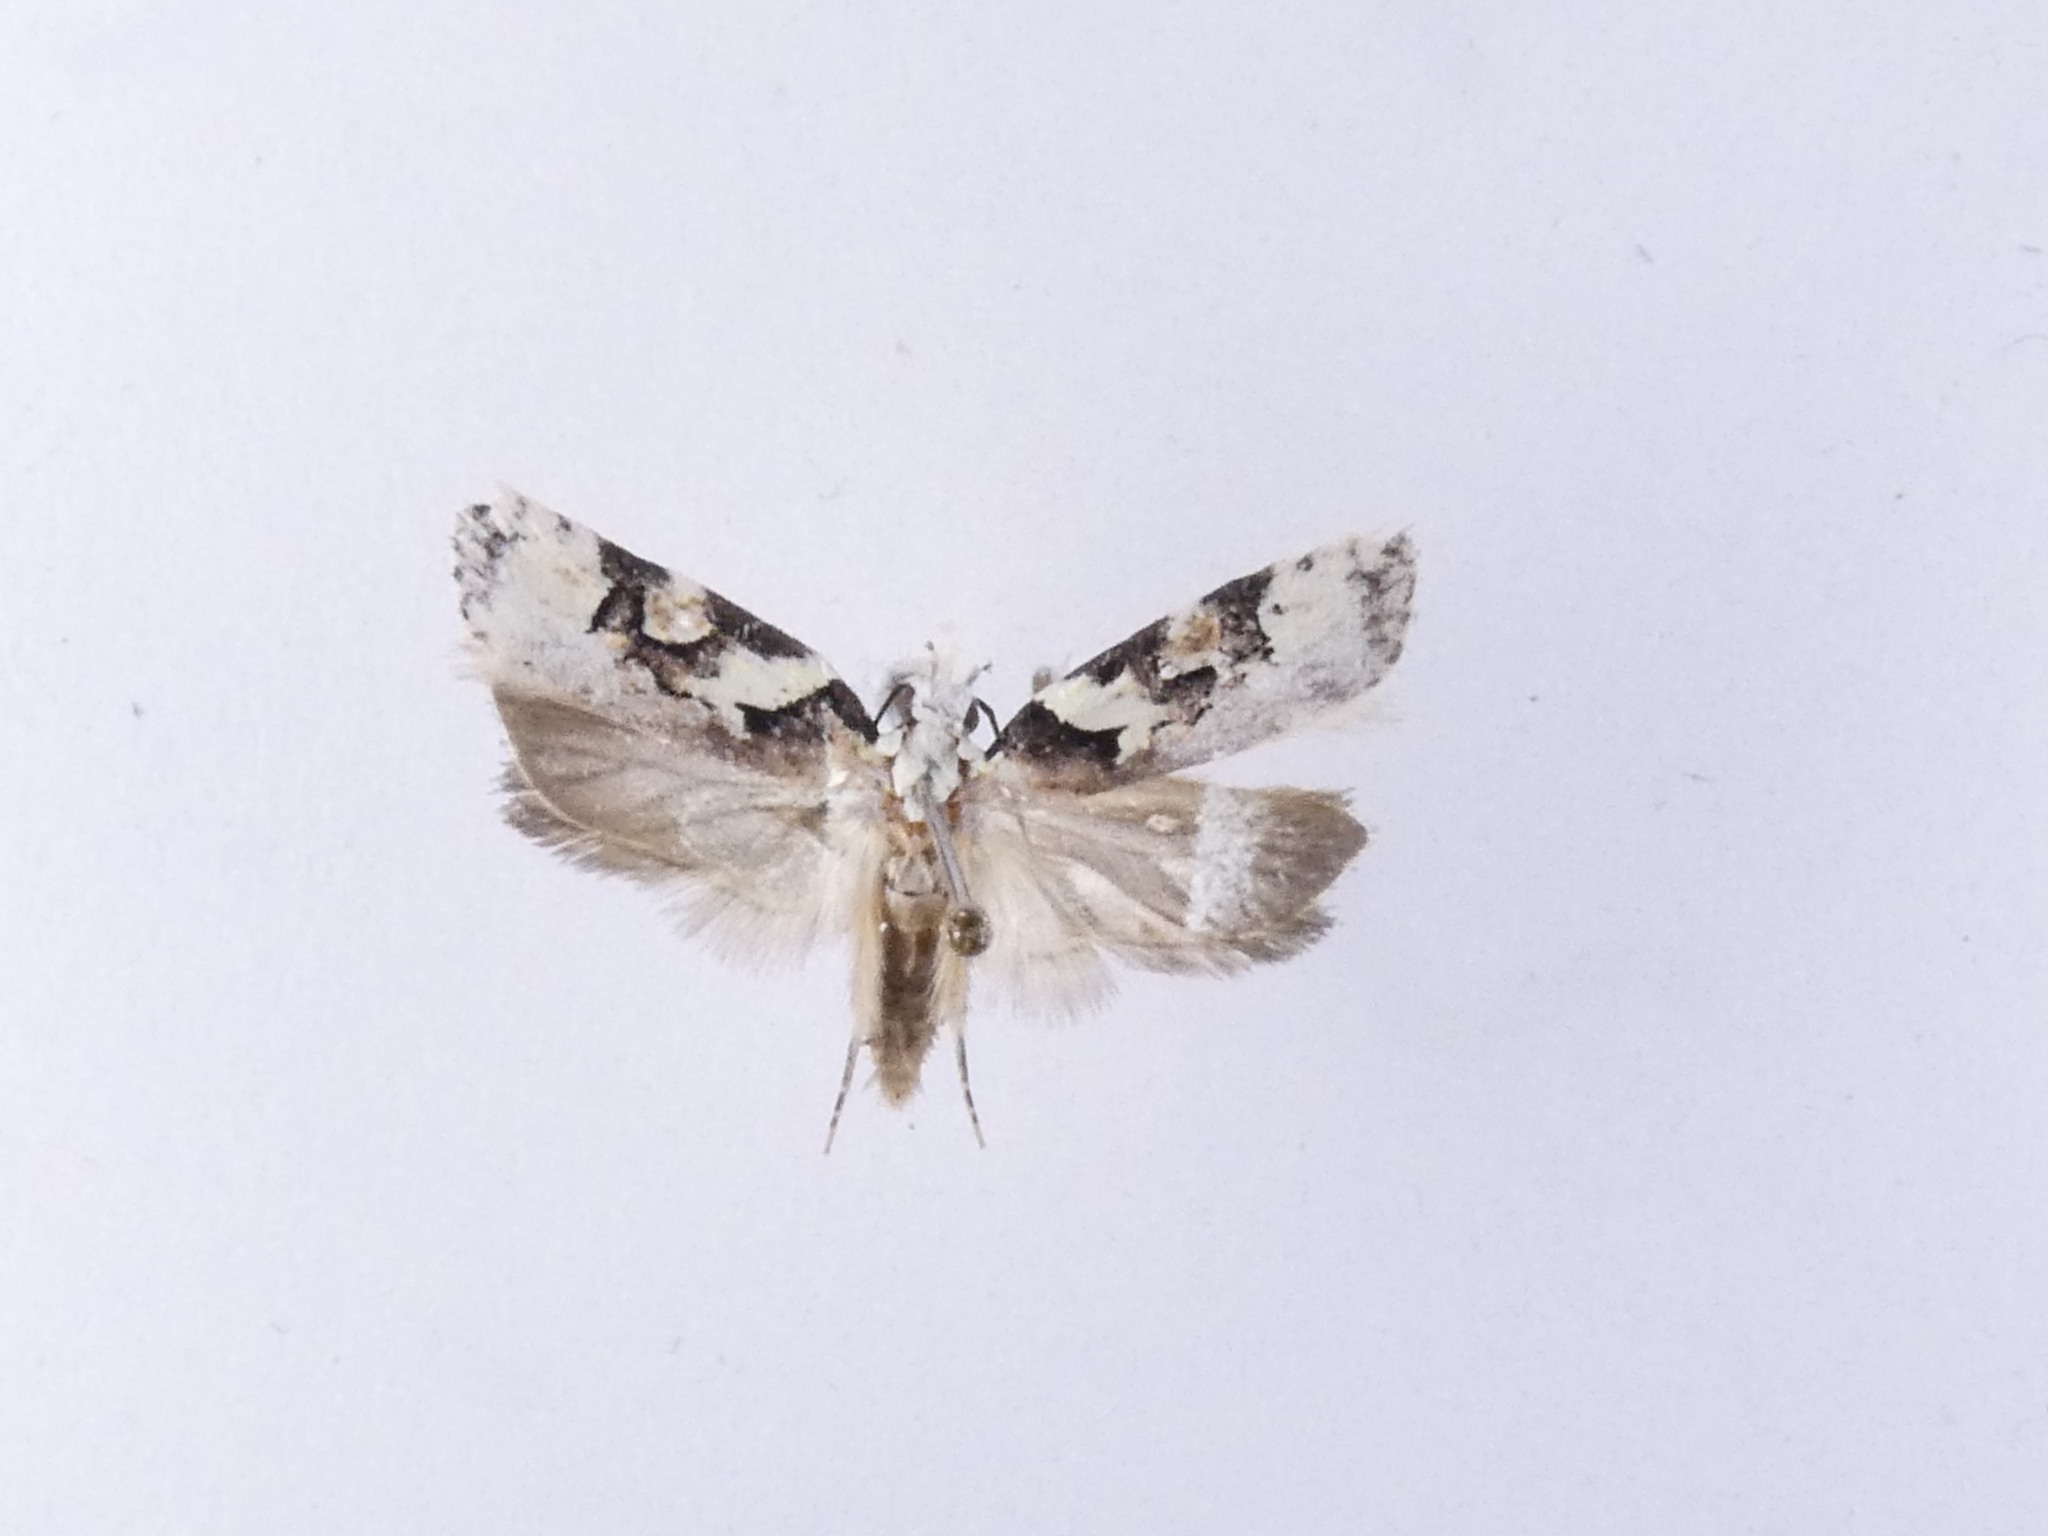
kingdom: Animalia
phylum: Arthropoda
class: Insecta
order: Lepidoptera
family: Oecophoridae
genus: Izatha
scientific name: Izatha epiphanes
